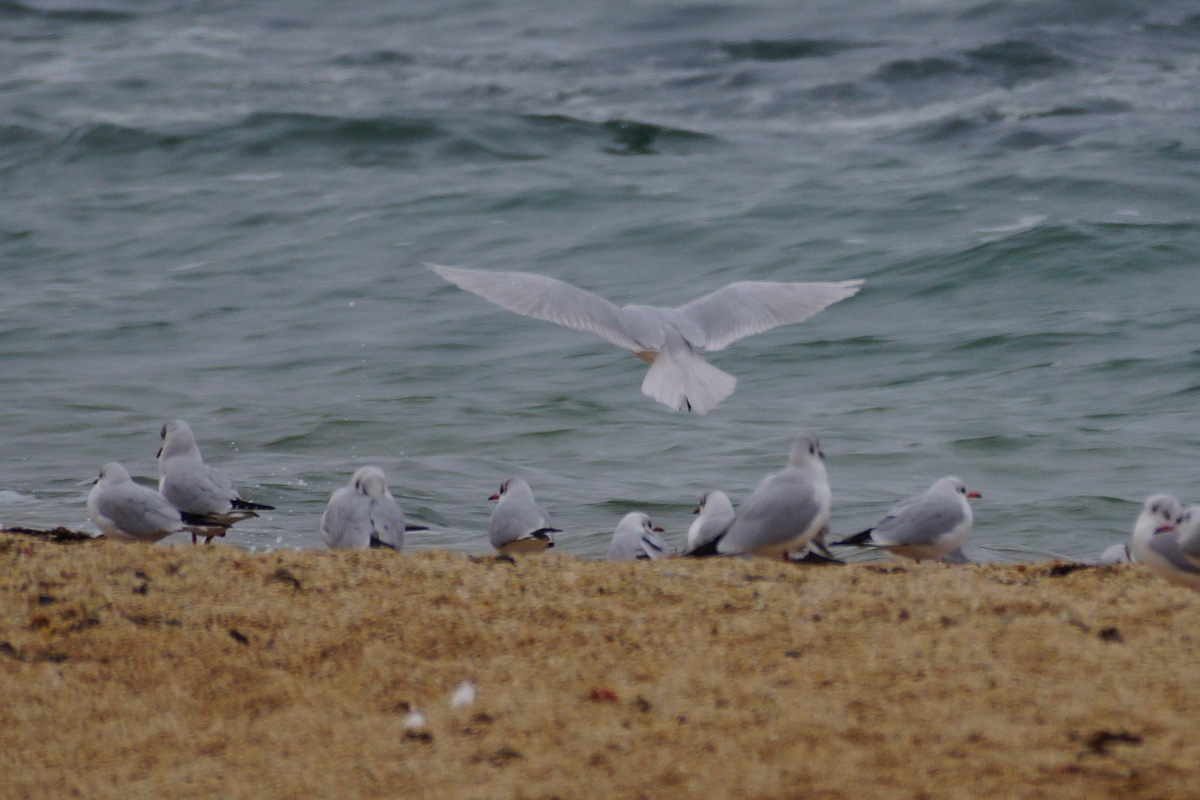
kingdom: Animalia
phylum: Chordata
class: Aves
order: Charadriiformes
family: Laridae
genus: Ichthyaetus
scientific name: Ichthyaetus melanocephalus
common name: Mediterranean gull
